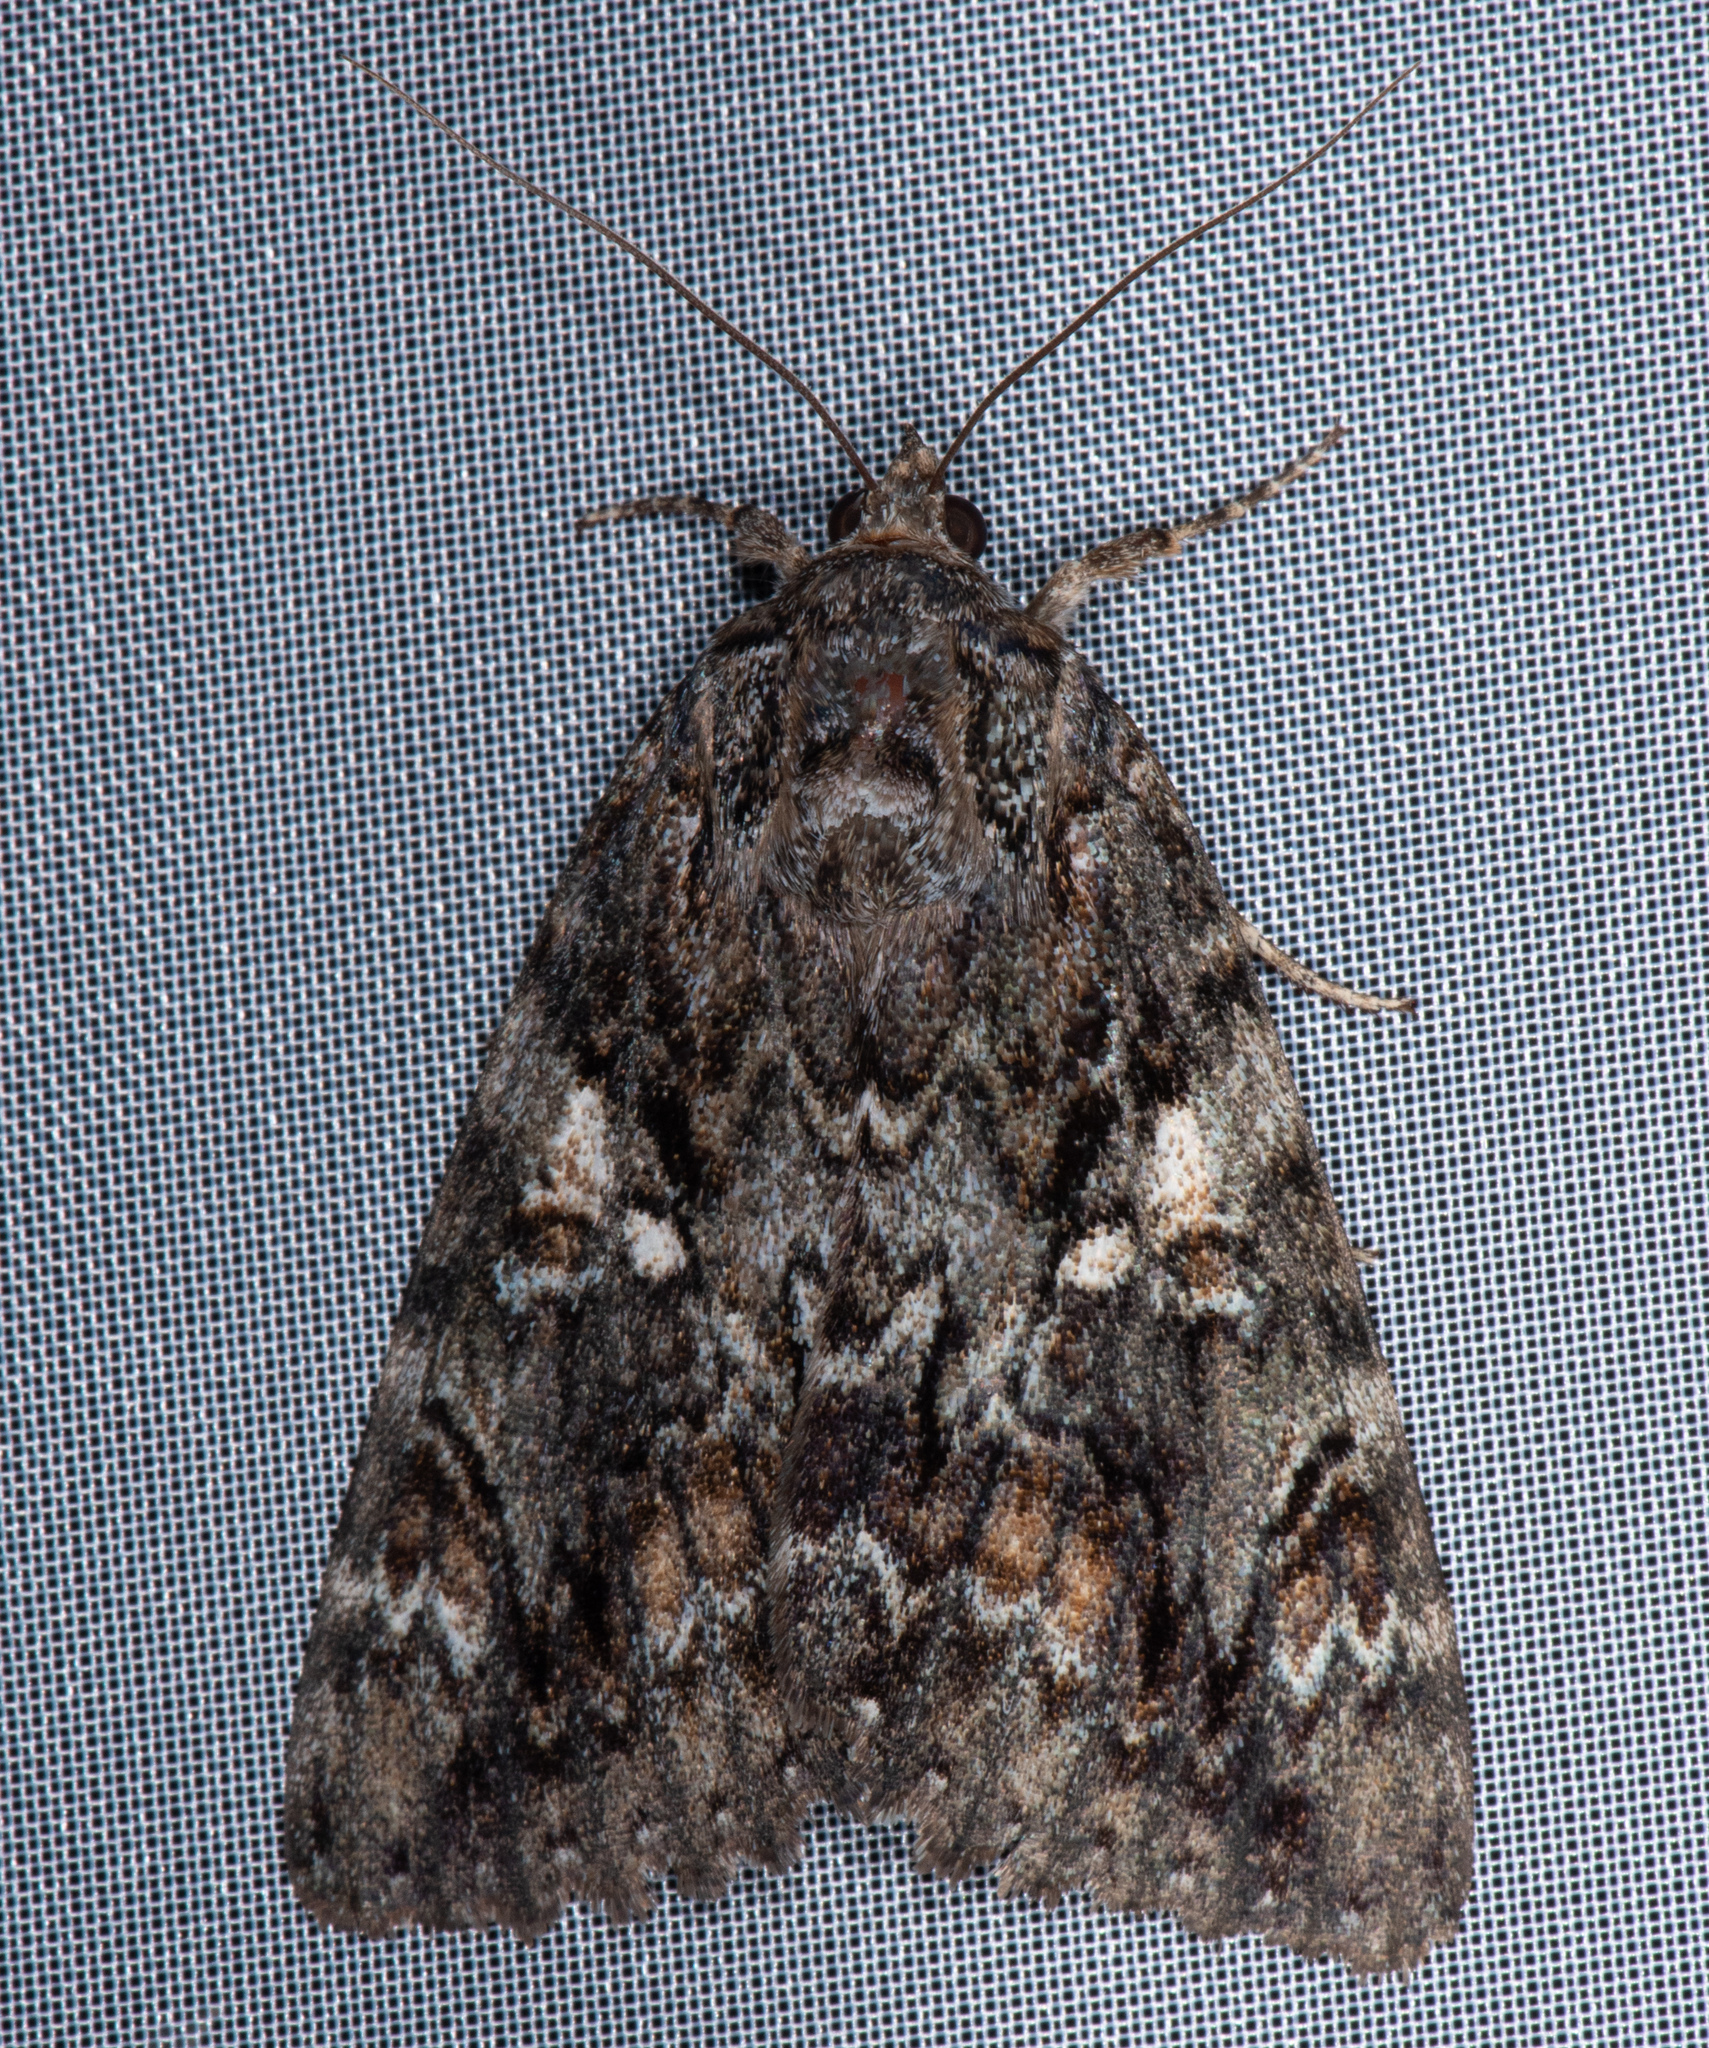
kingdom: Animalia
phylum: Arthropoda
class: Insecta
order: Lepidoptera
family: Erebidae
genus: Catocala
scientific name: Catocala aholibah
